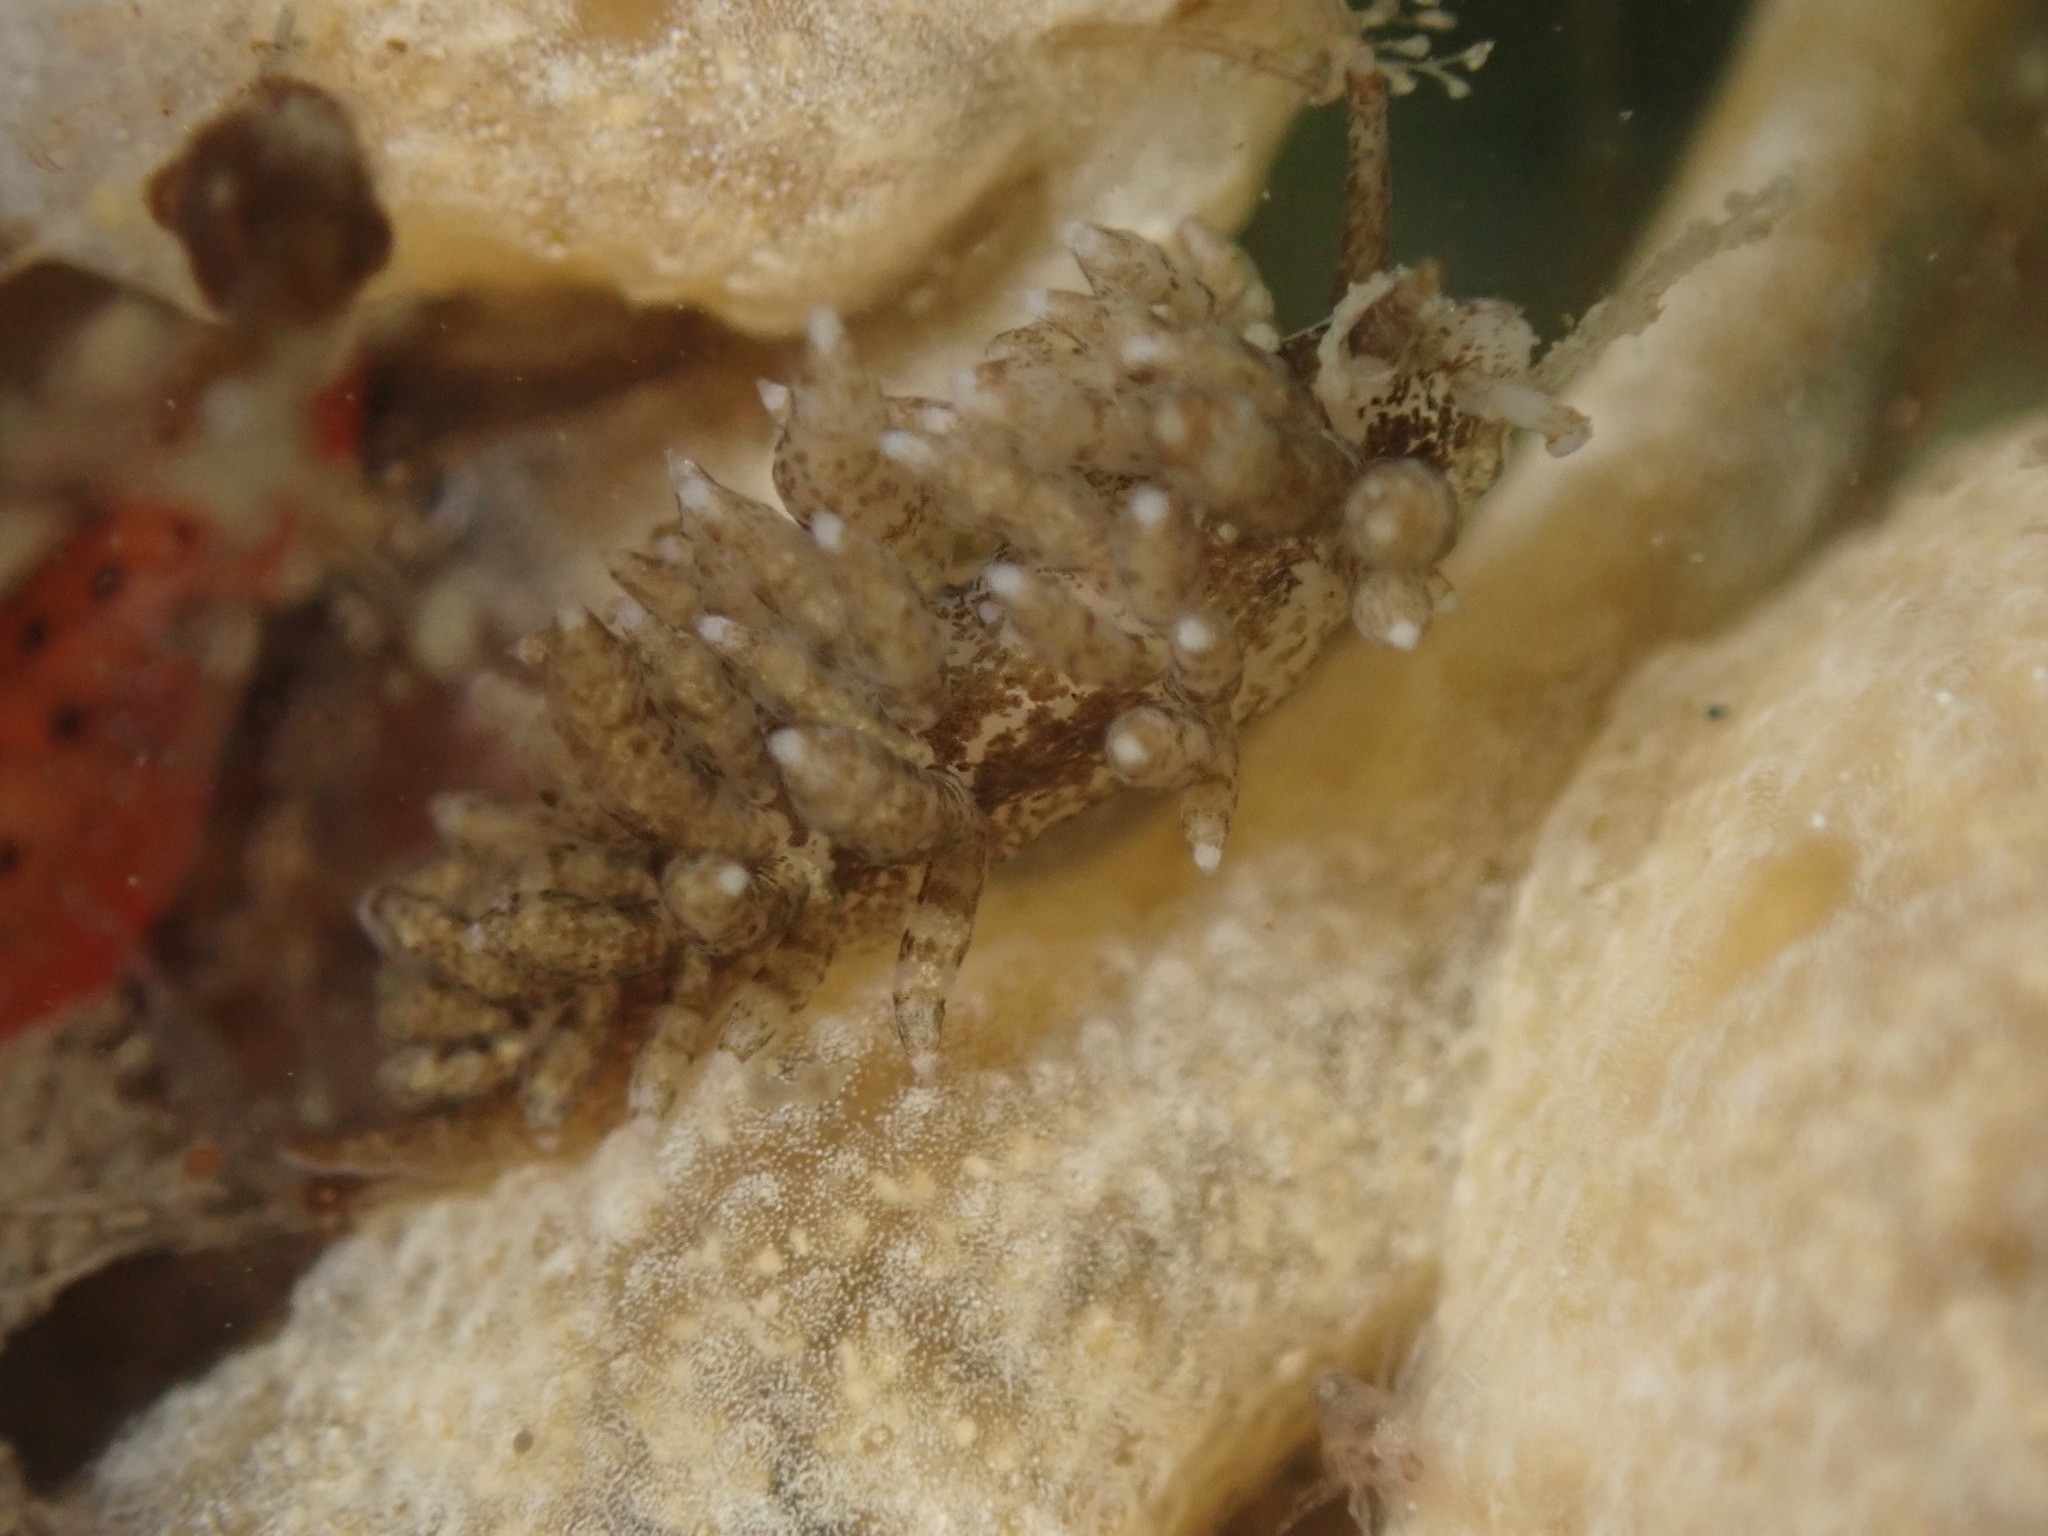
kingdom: Animalia
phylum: Mollusca
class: Gastropoda
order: Nudibranchia
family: Eubranchidae
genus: Eubranchus
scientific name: Eubranchus rustyus
